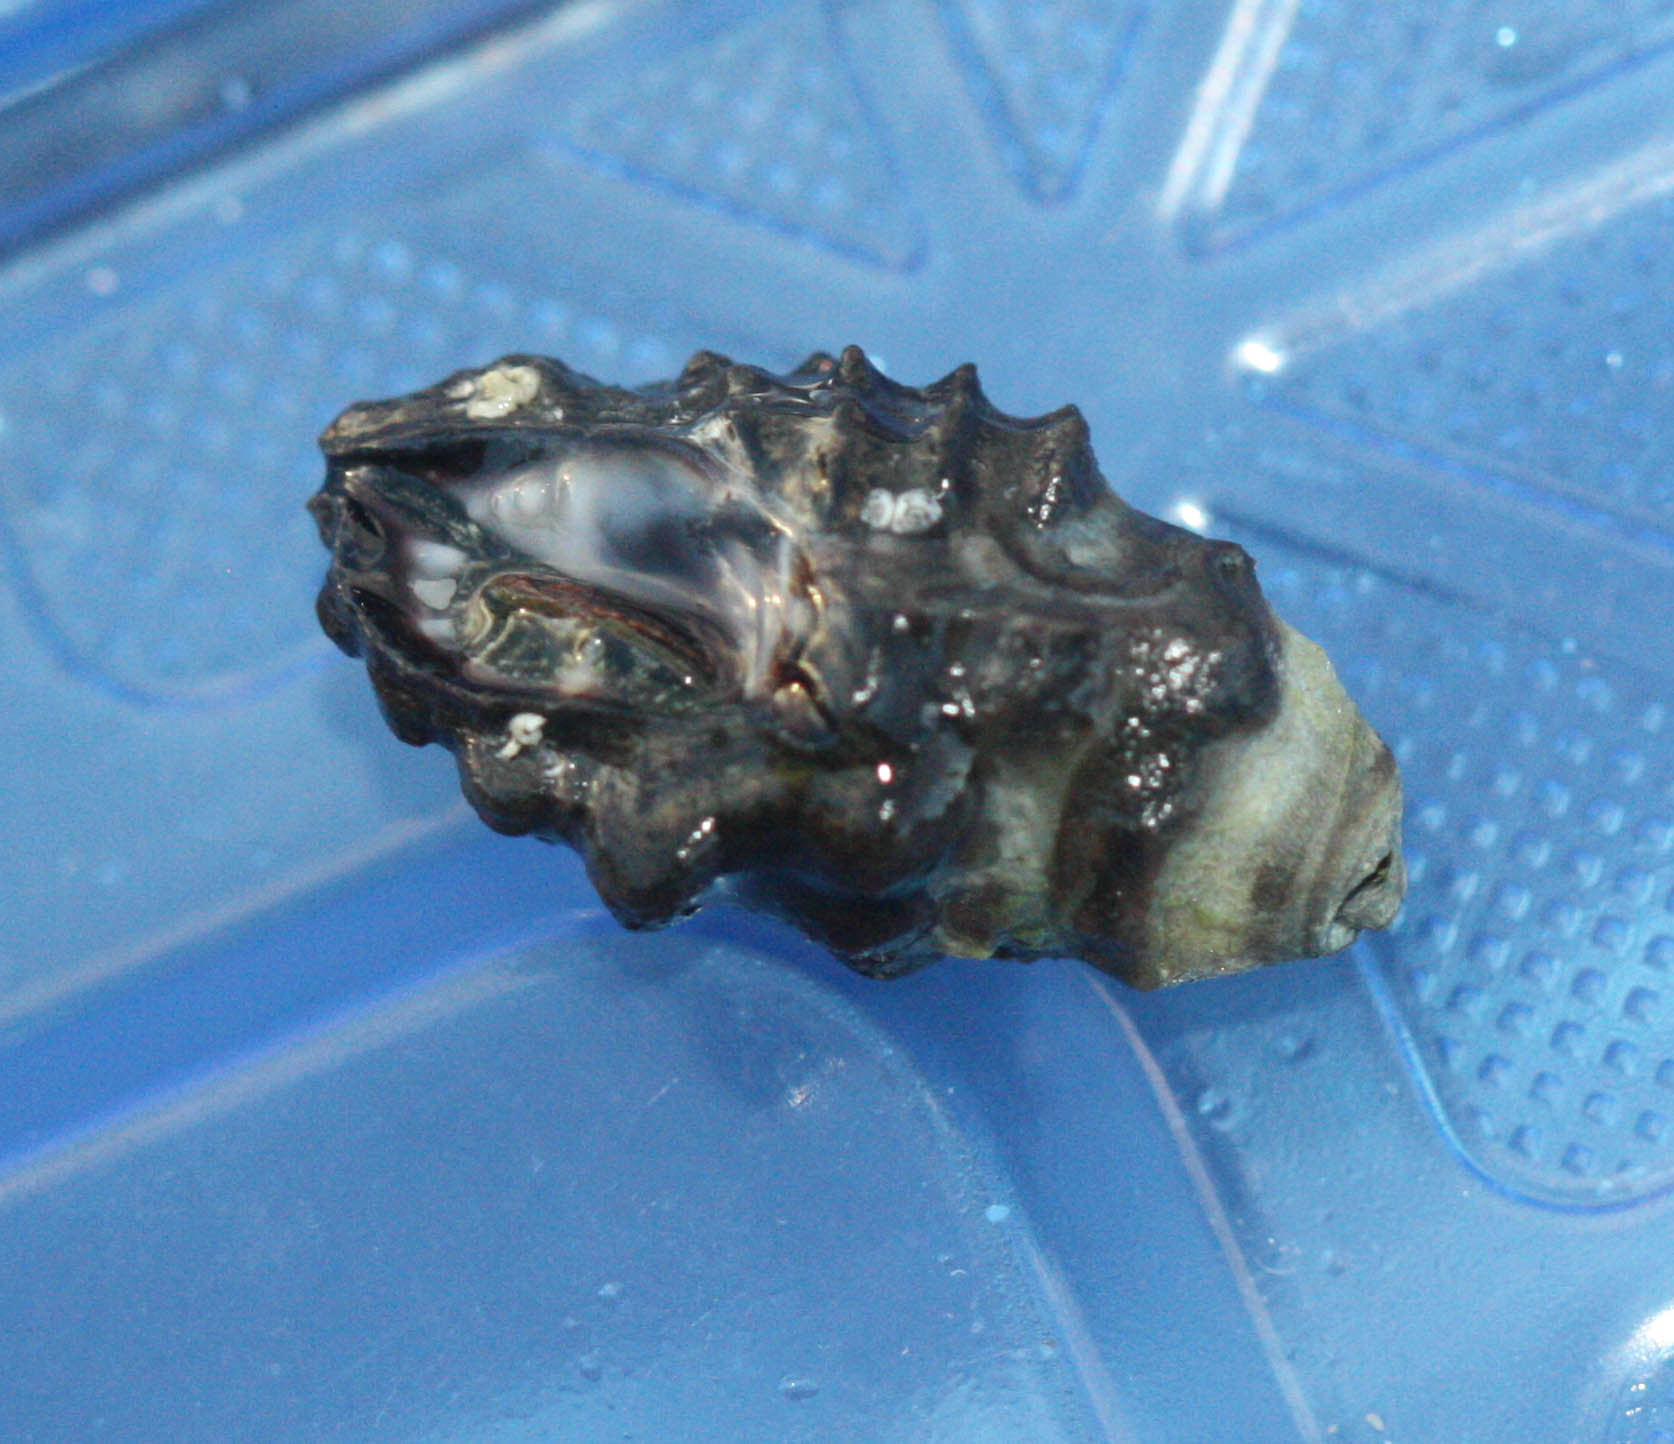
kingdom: Animalia
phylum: Mollusca
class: Gastropoda
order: Neogastropoda
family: Muricidae
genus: Tenguella
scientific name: Tenguella granulata
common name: Granular drupe
